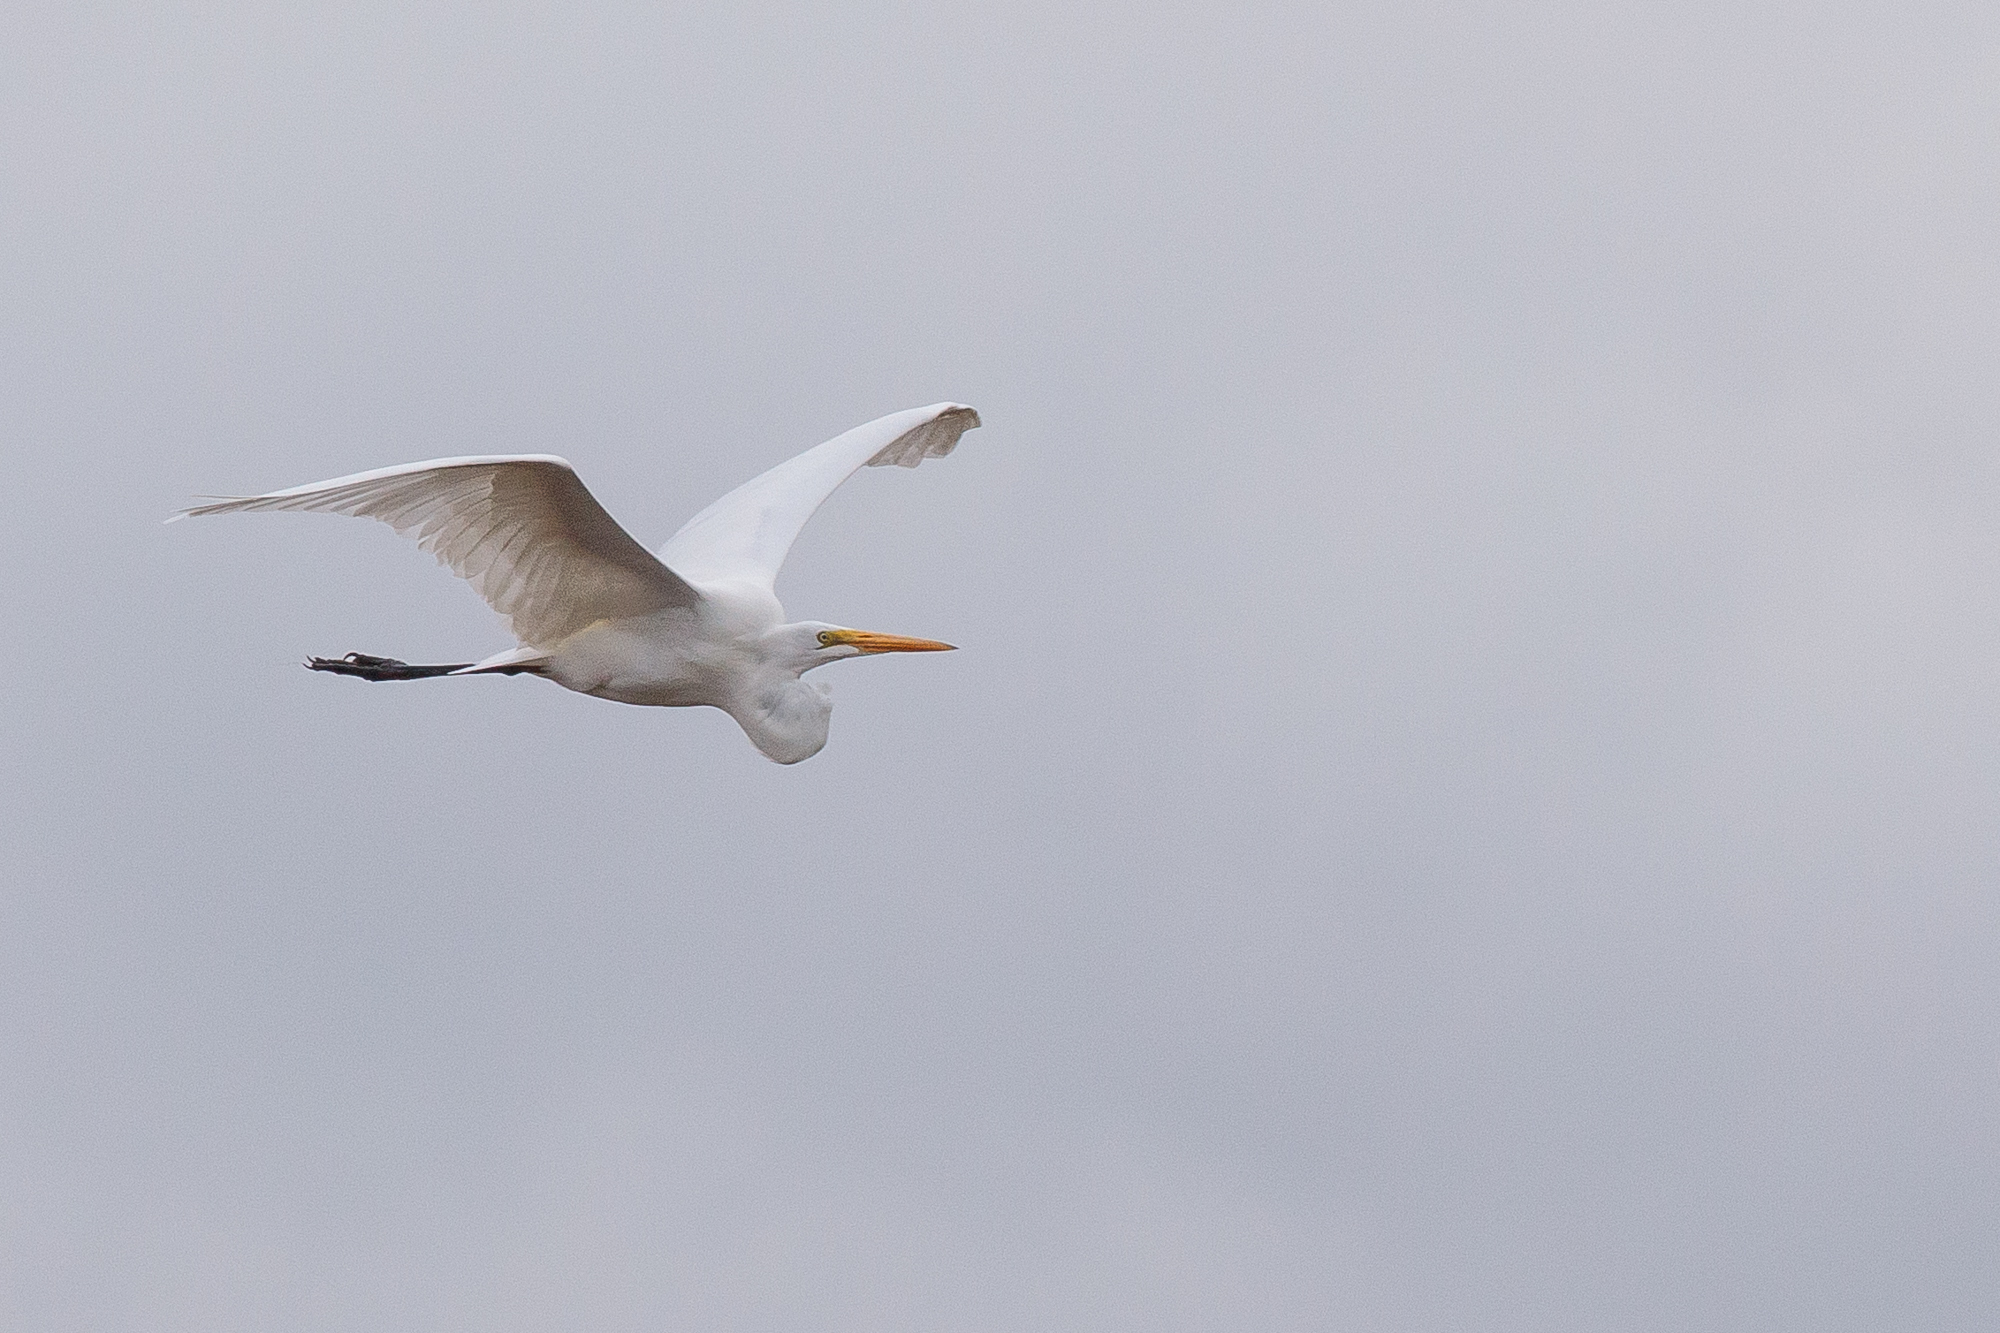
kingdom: Animalia
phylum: Chordata
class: Aves
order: Pelecaniformes
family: Ardeidae
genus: Ardea
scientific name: Ardea alba
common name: Great egret
